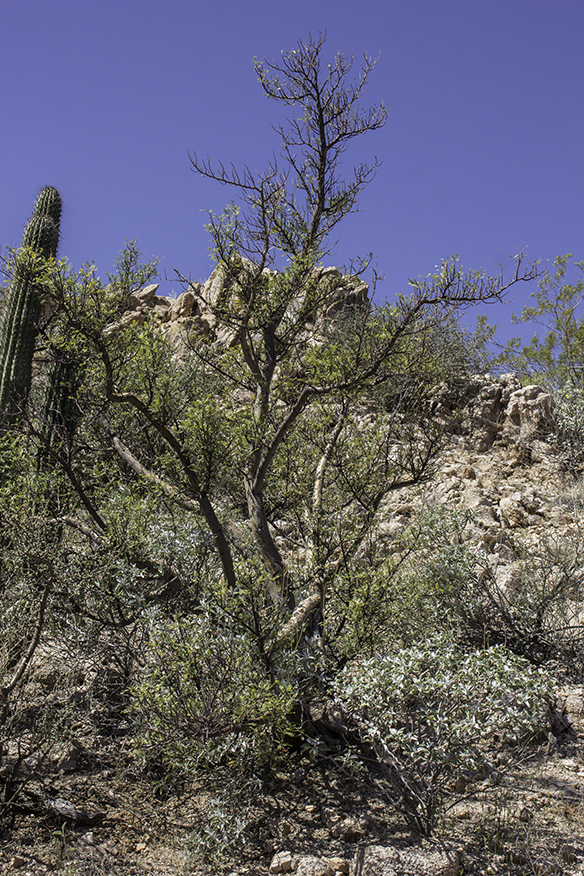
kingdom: Plantae
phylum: Tracheophyta
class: Magnoliopsida
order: Sapindales
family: Burseraceae
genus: Bursera
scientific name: Bursera microphylla
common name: Elephant tree
